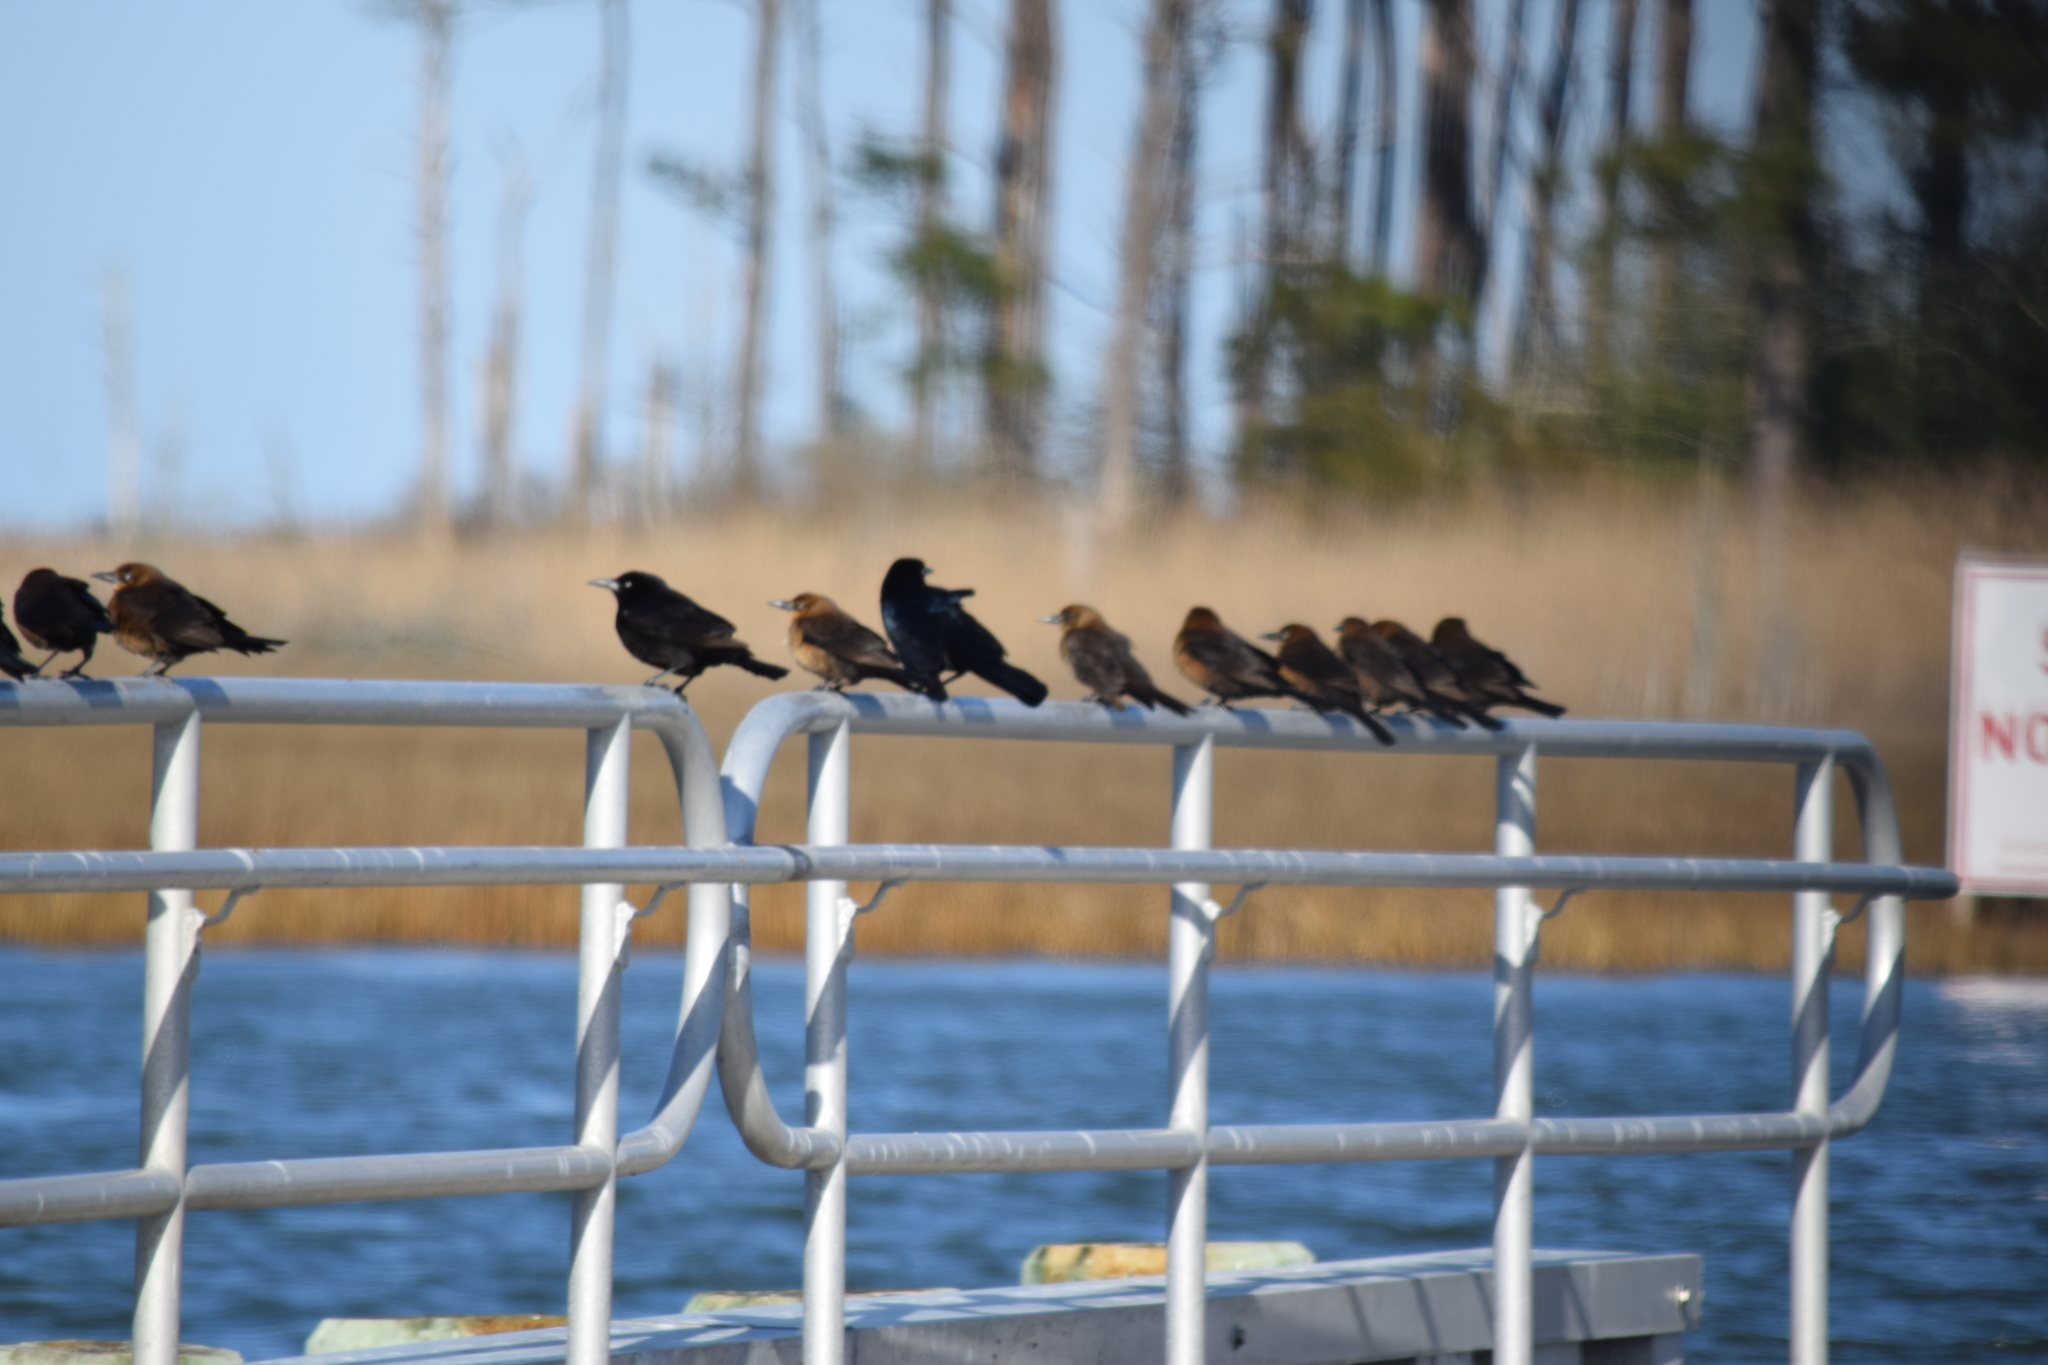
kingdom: Animalia
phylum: Chordata
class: Aves
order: Passeriformes
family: Icteridae
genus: Quiscalus
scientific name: Quiscalus major
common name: Boat-tailed grackle
